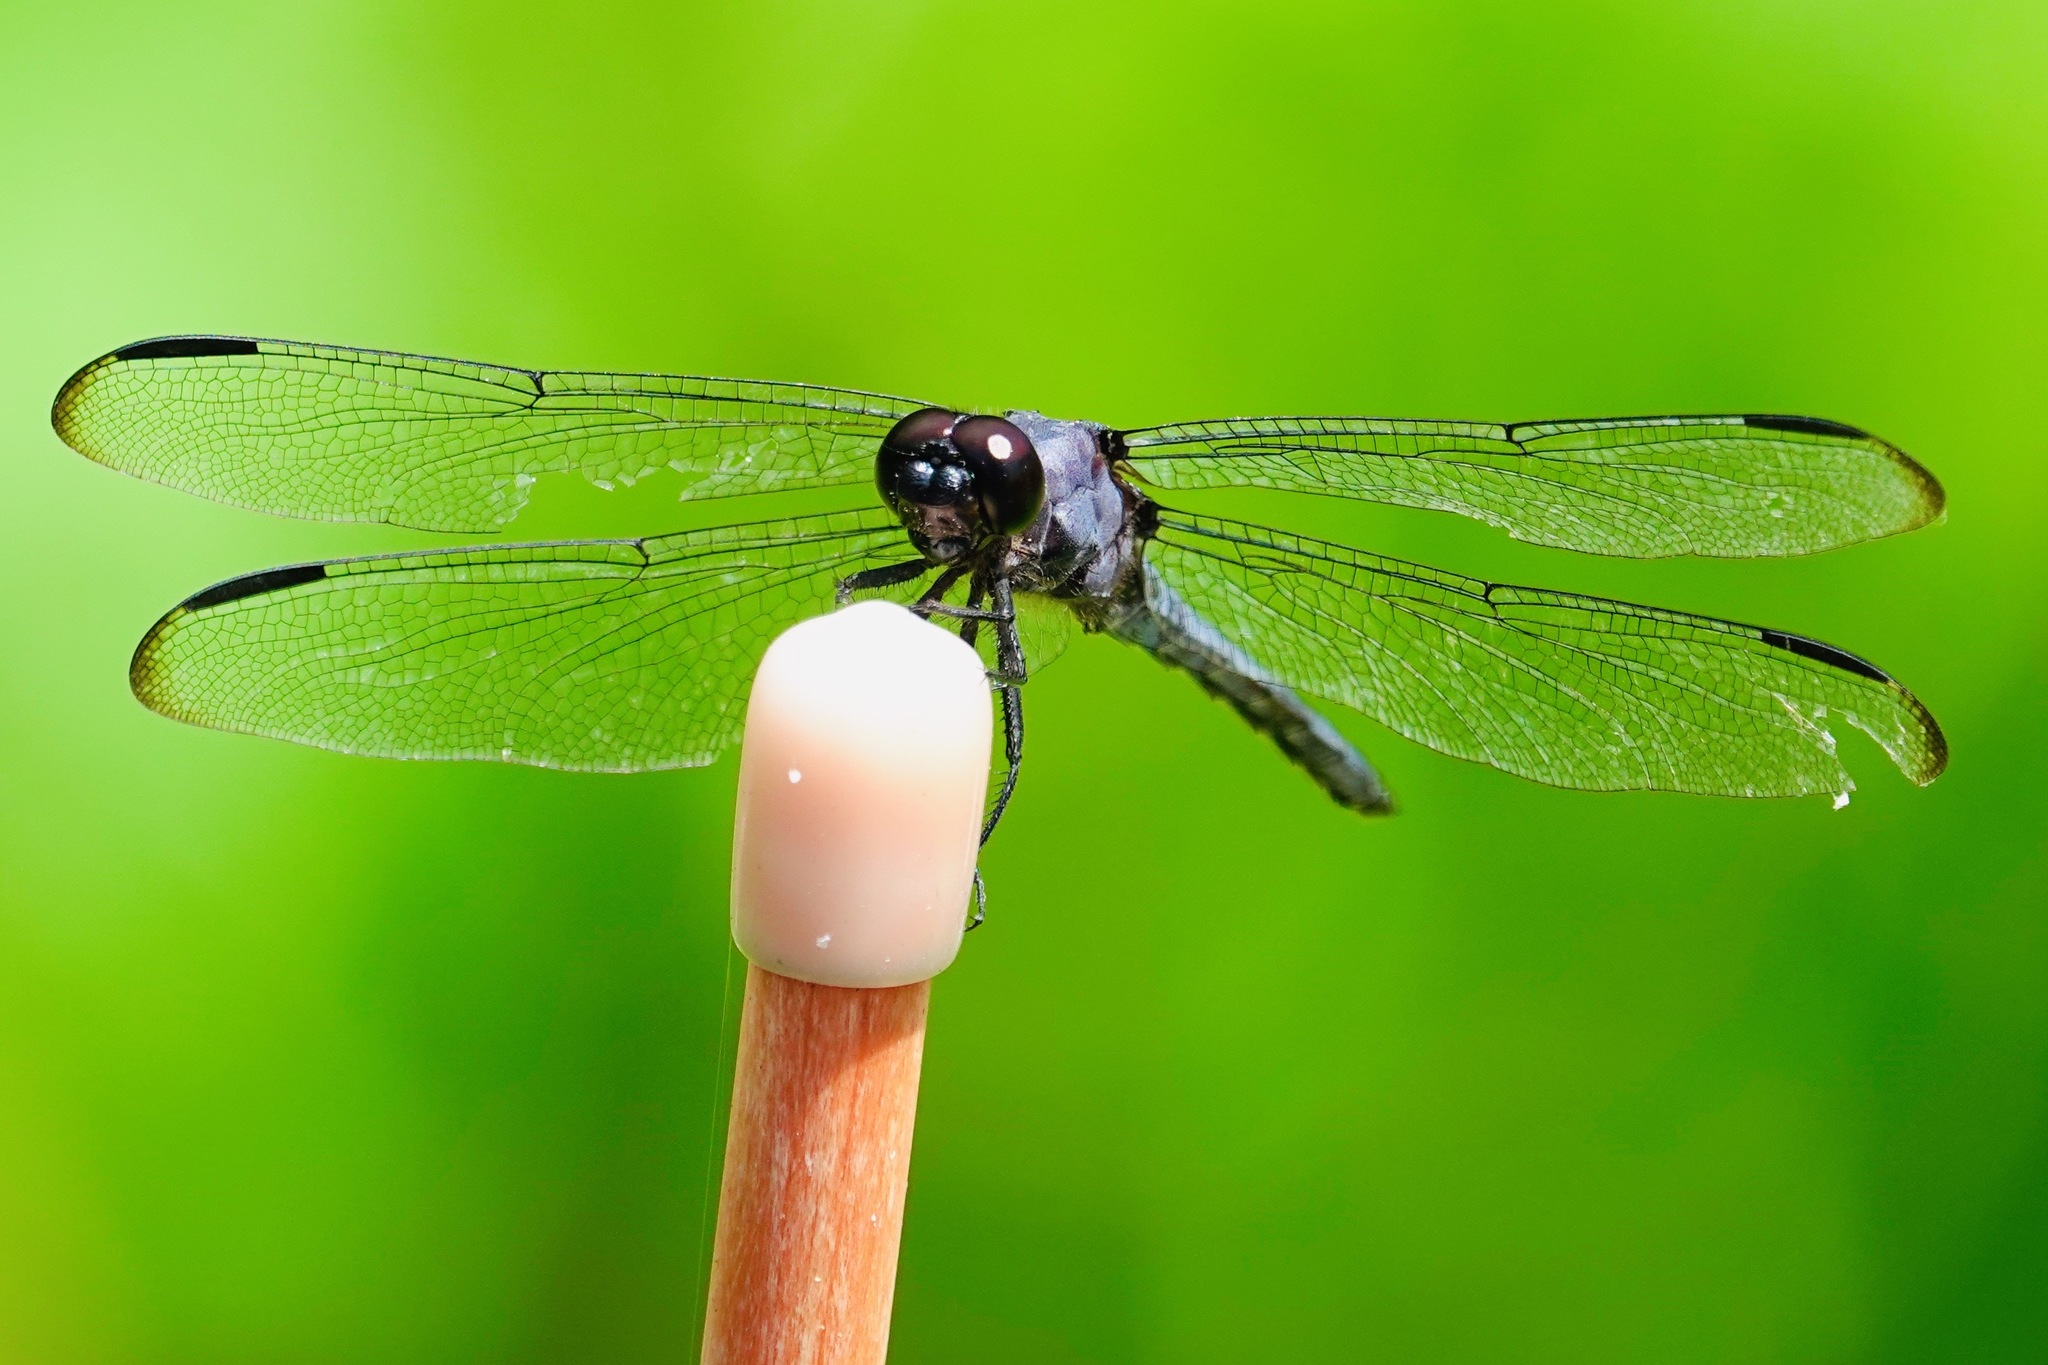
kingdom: Animalia
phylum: Arthropoda
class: Insecta
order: Odonata
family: Libellulidae
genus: Libellula
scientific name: Libellula incesta
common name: Slaty skimmer
